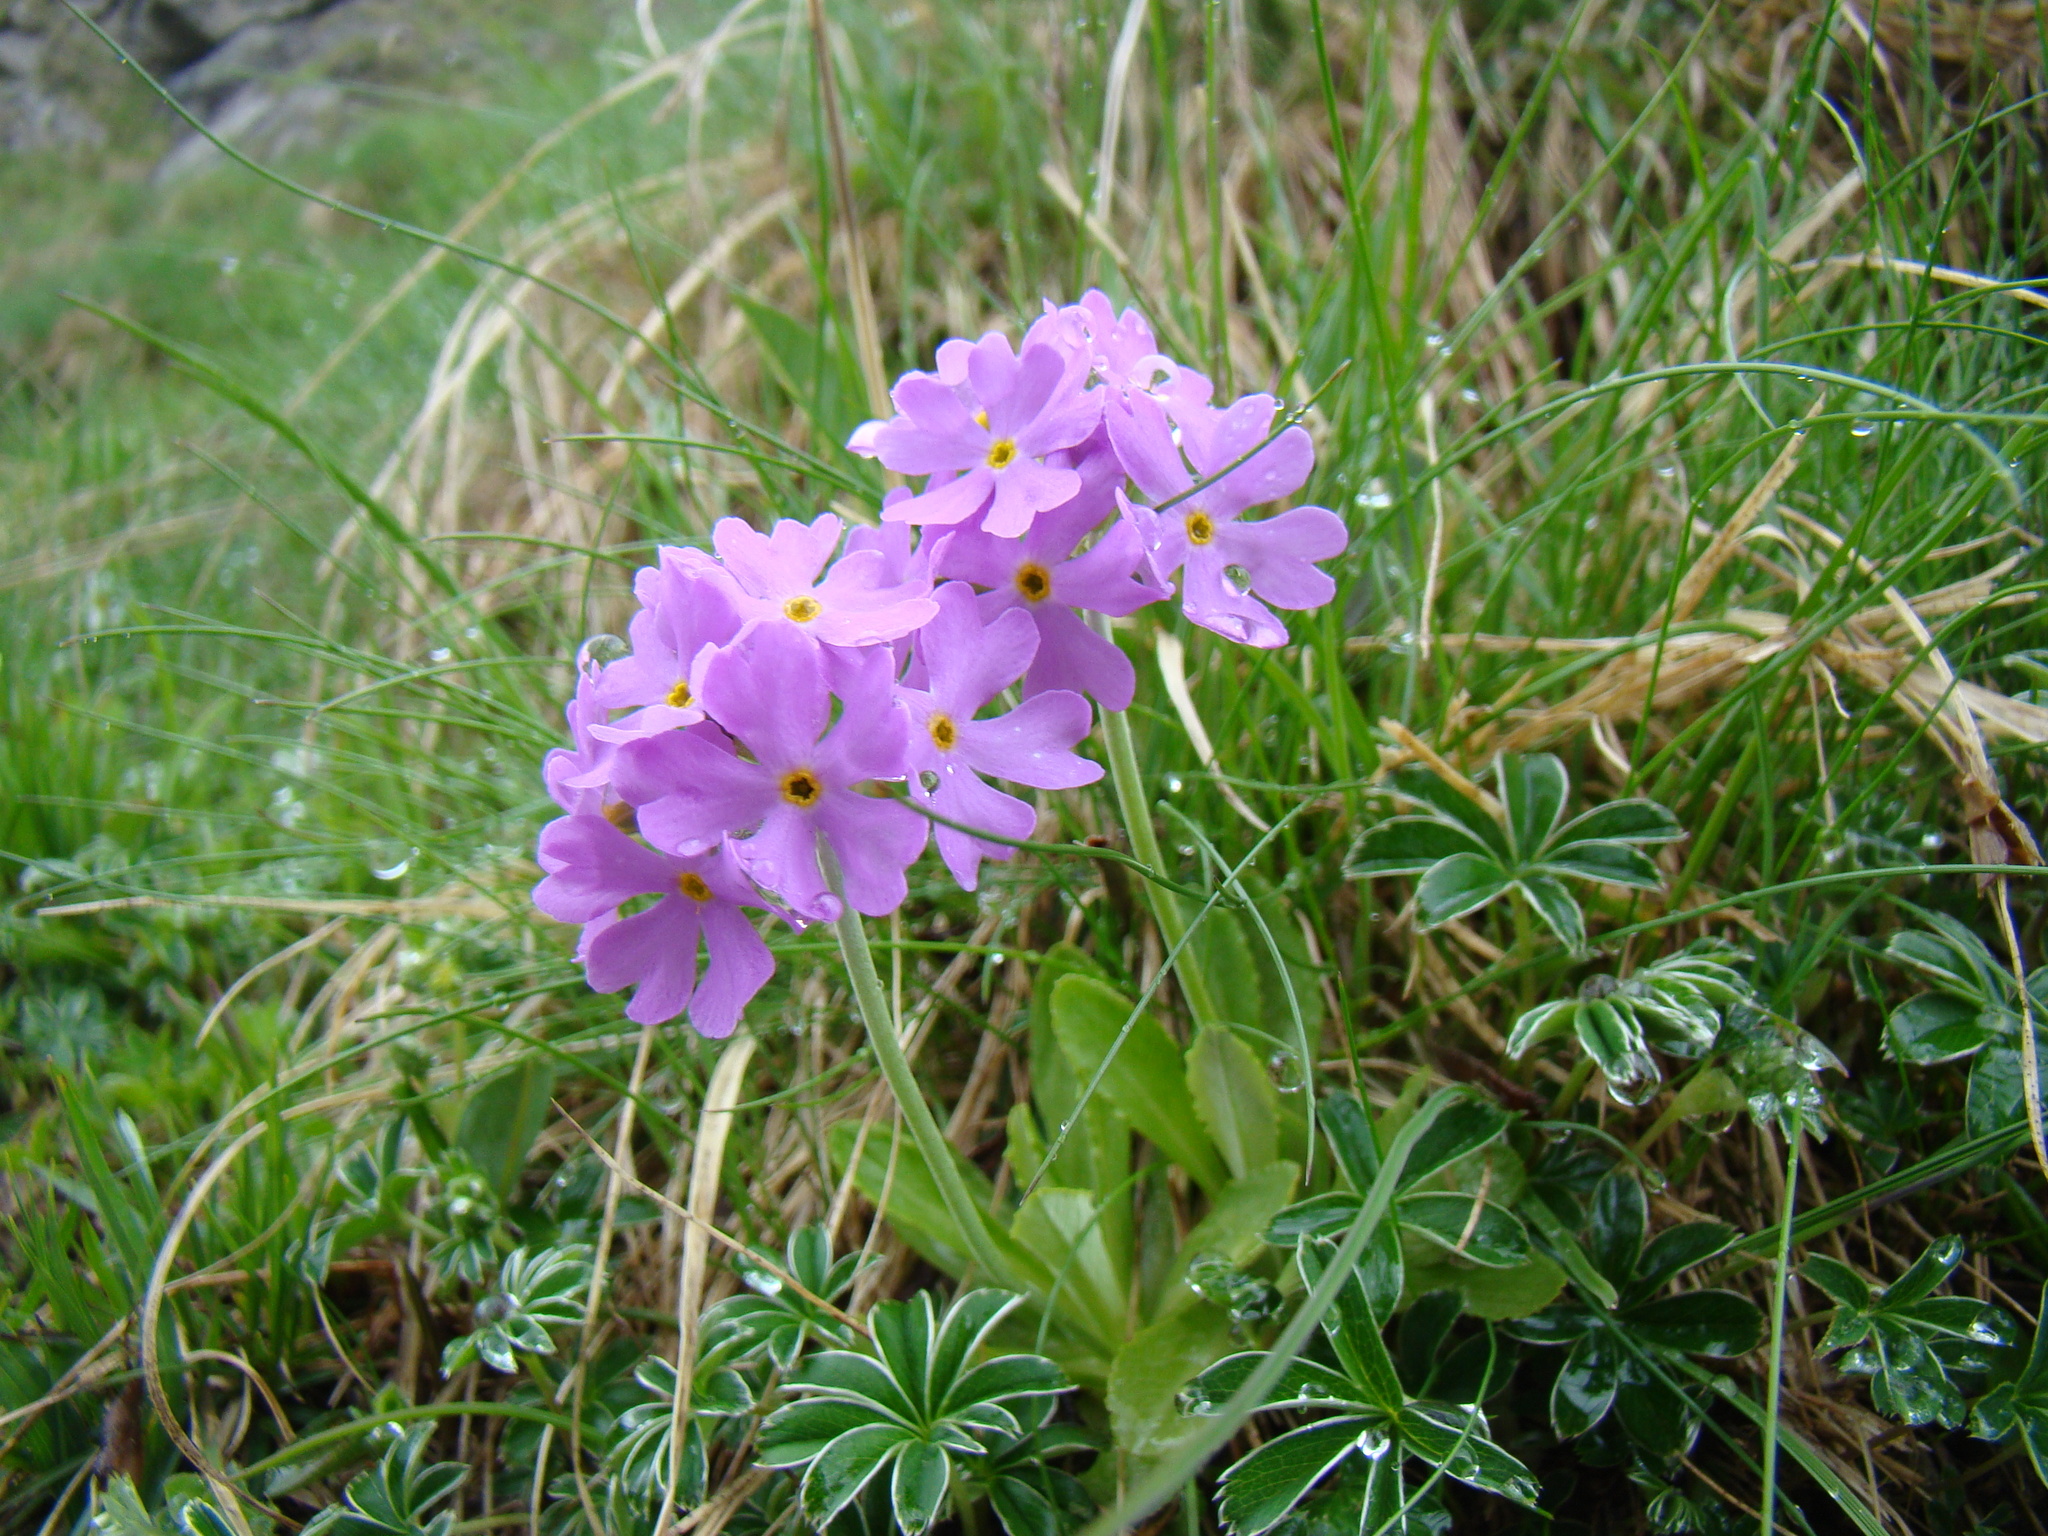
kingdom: Plantae
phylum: Tracheophyta
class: Magnoliopsida
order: Ericales
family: Primulaceae
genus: Primula
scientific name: Primula farinosa
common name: Bird's-eye primrose
